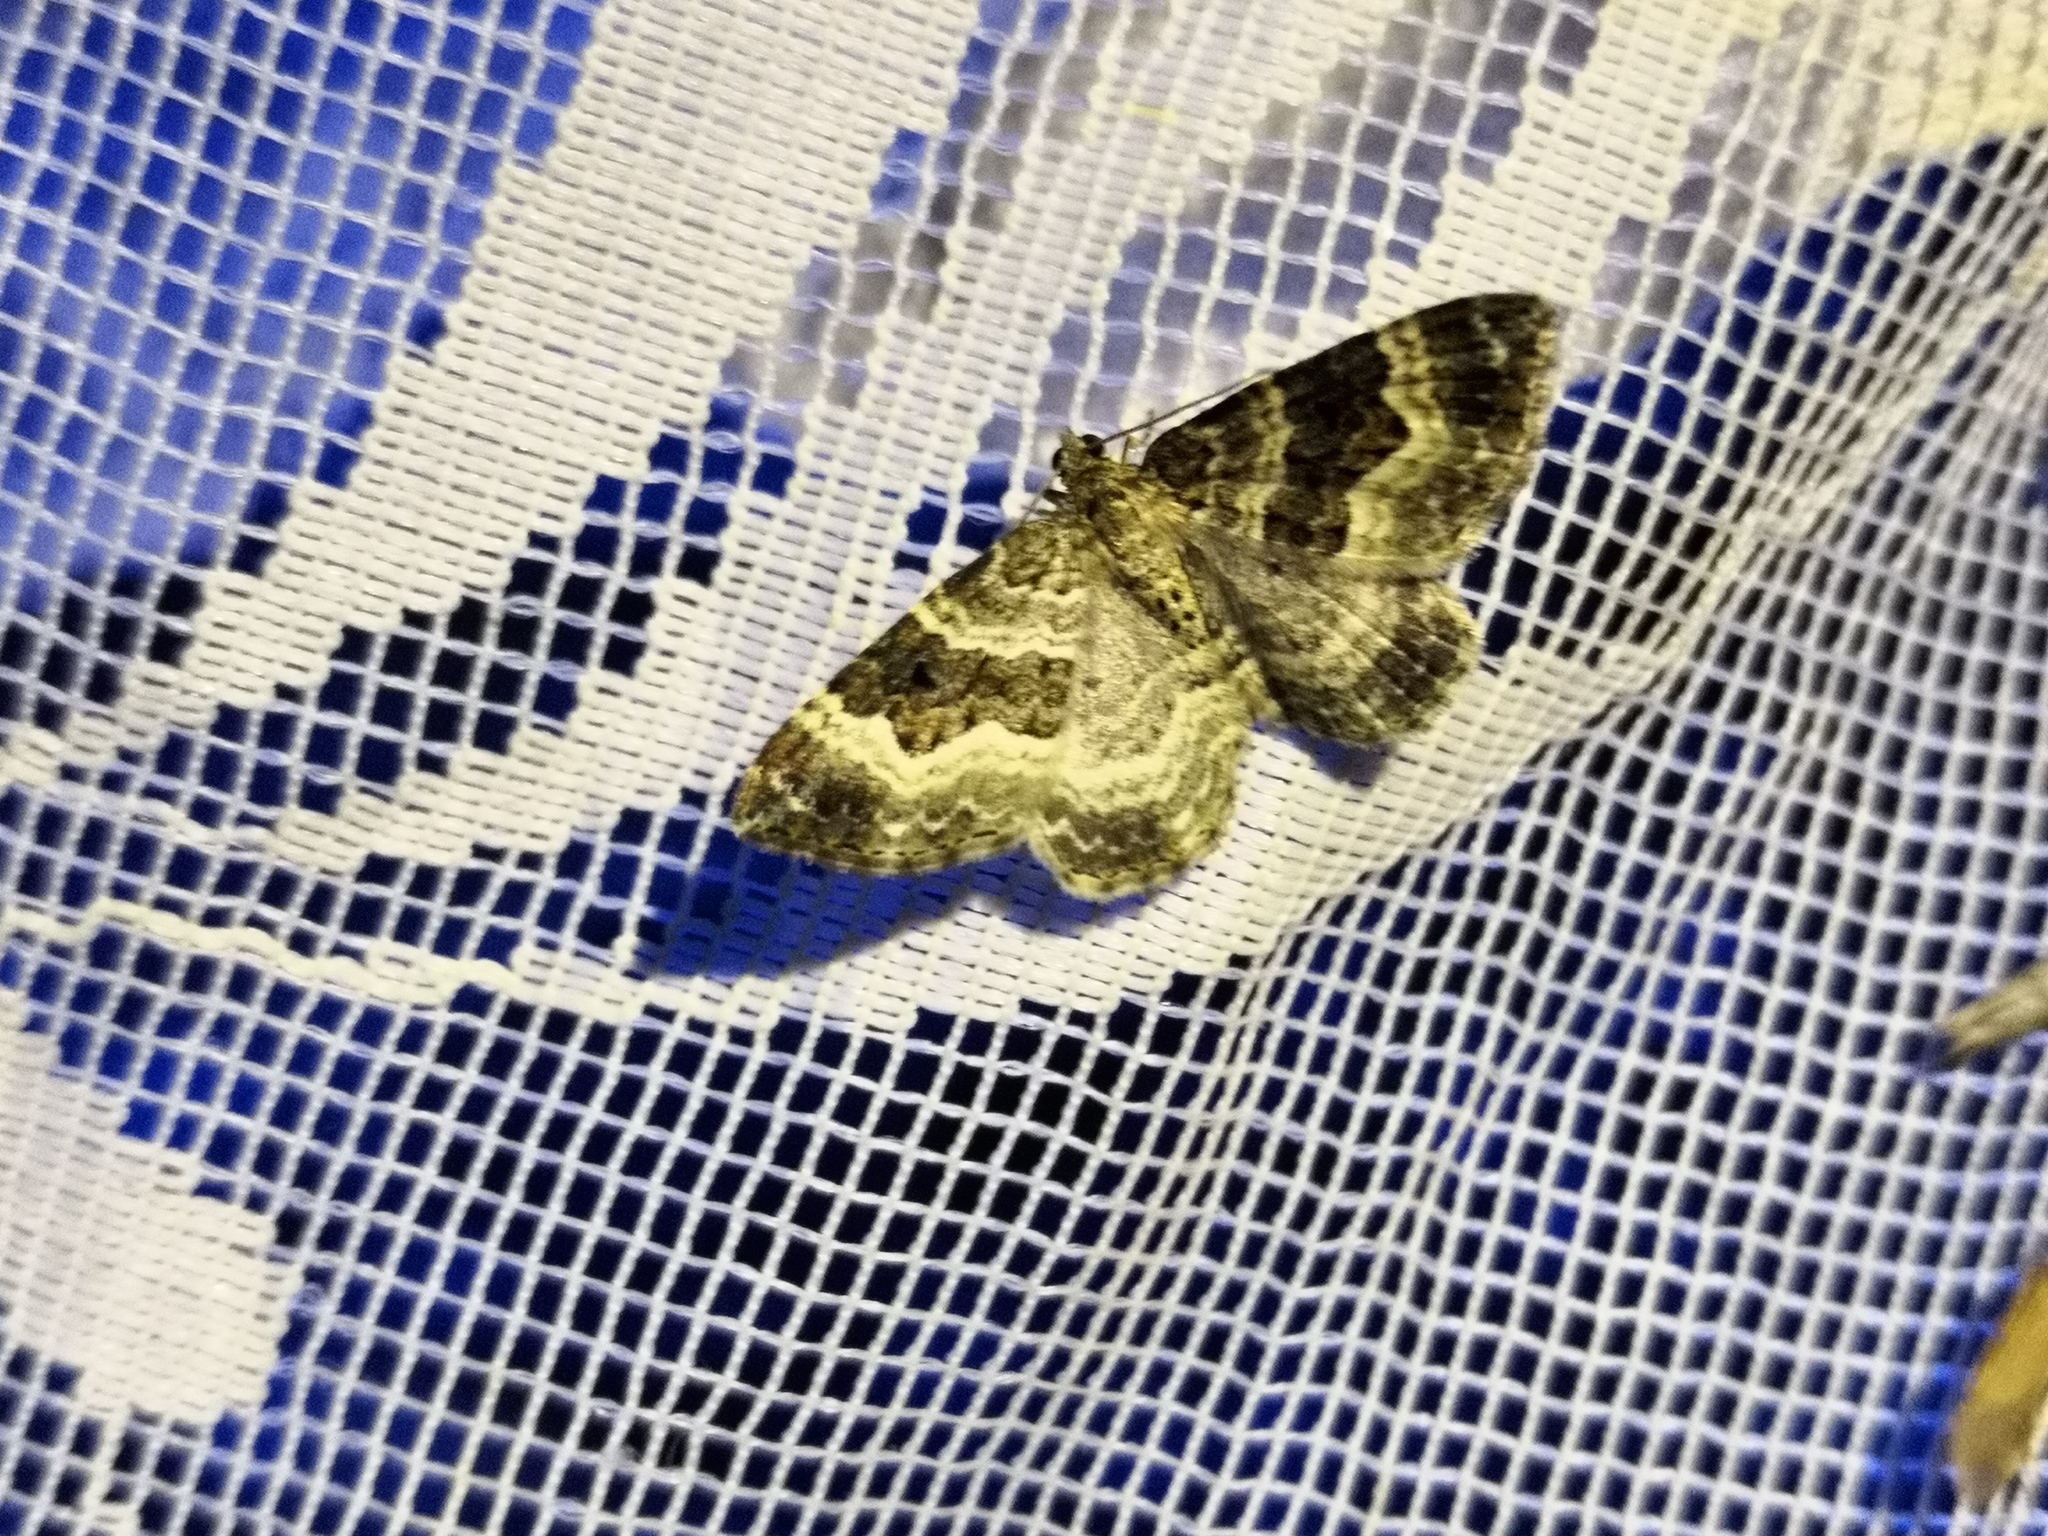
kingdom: Animalia
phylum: Arthropoda
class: Insecta
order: Lepidoptera
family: Geometridae
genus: Epirrhoe
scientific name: Epirrhoe alternata
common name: Common carpet
